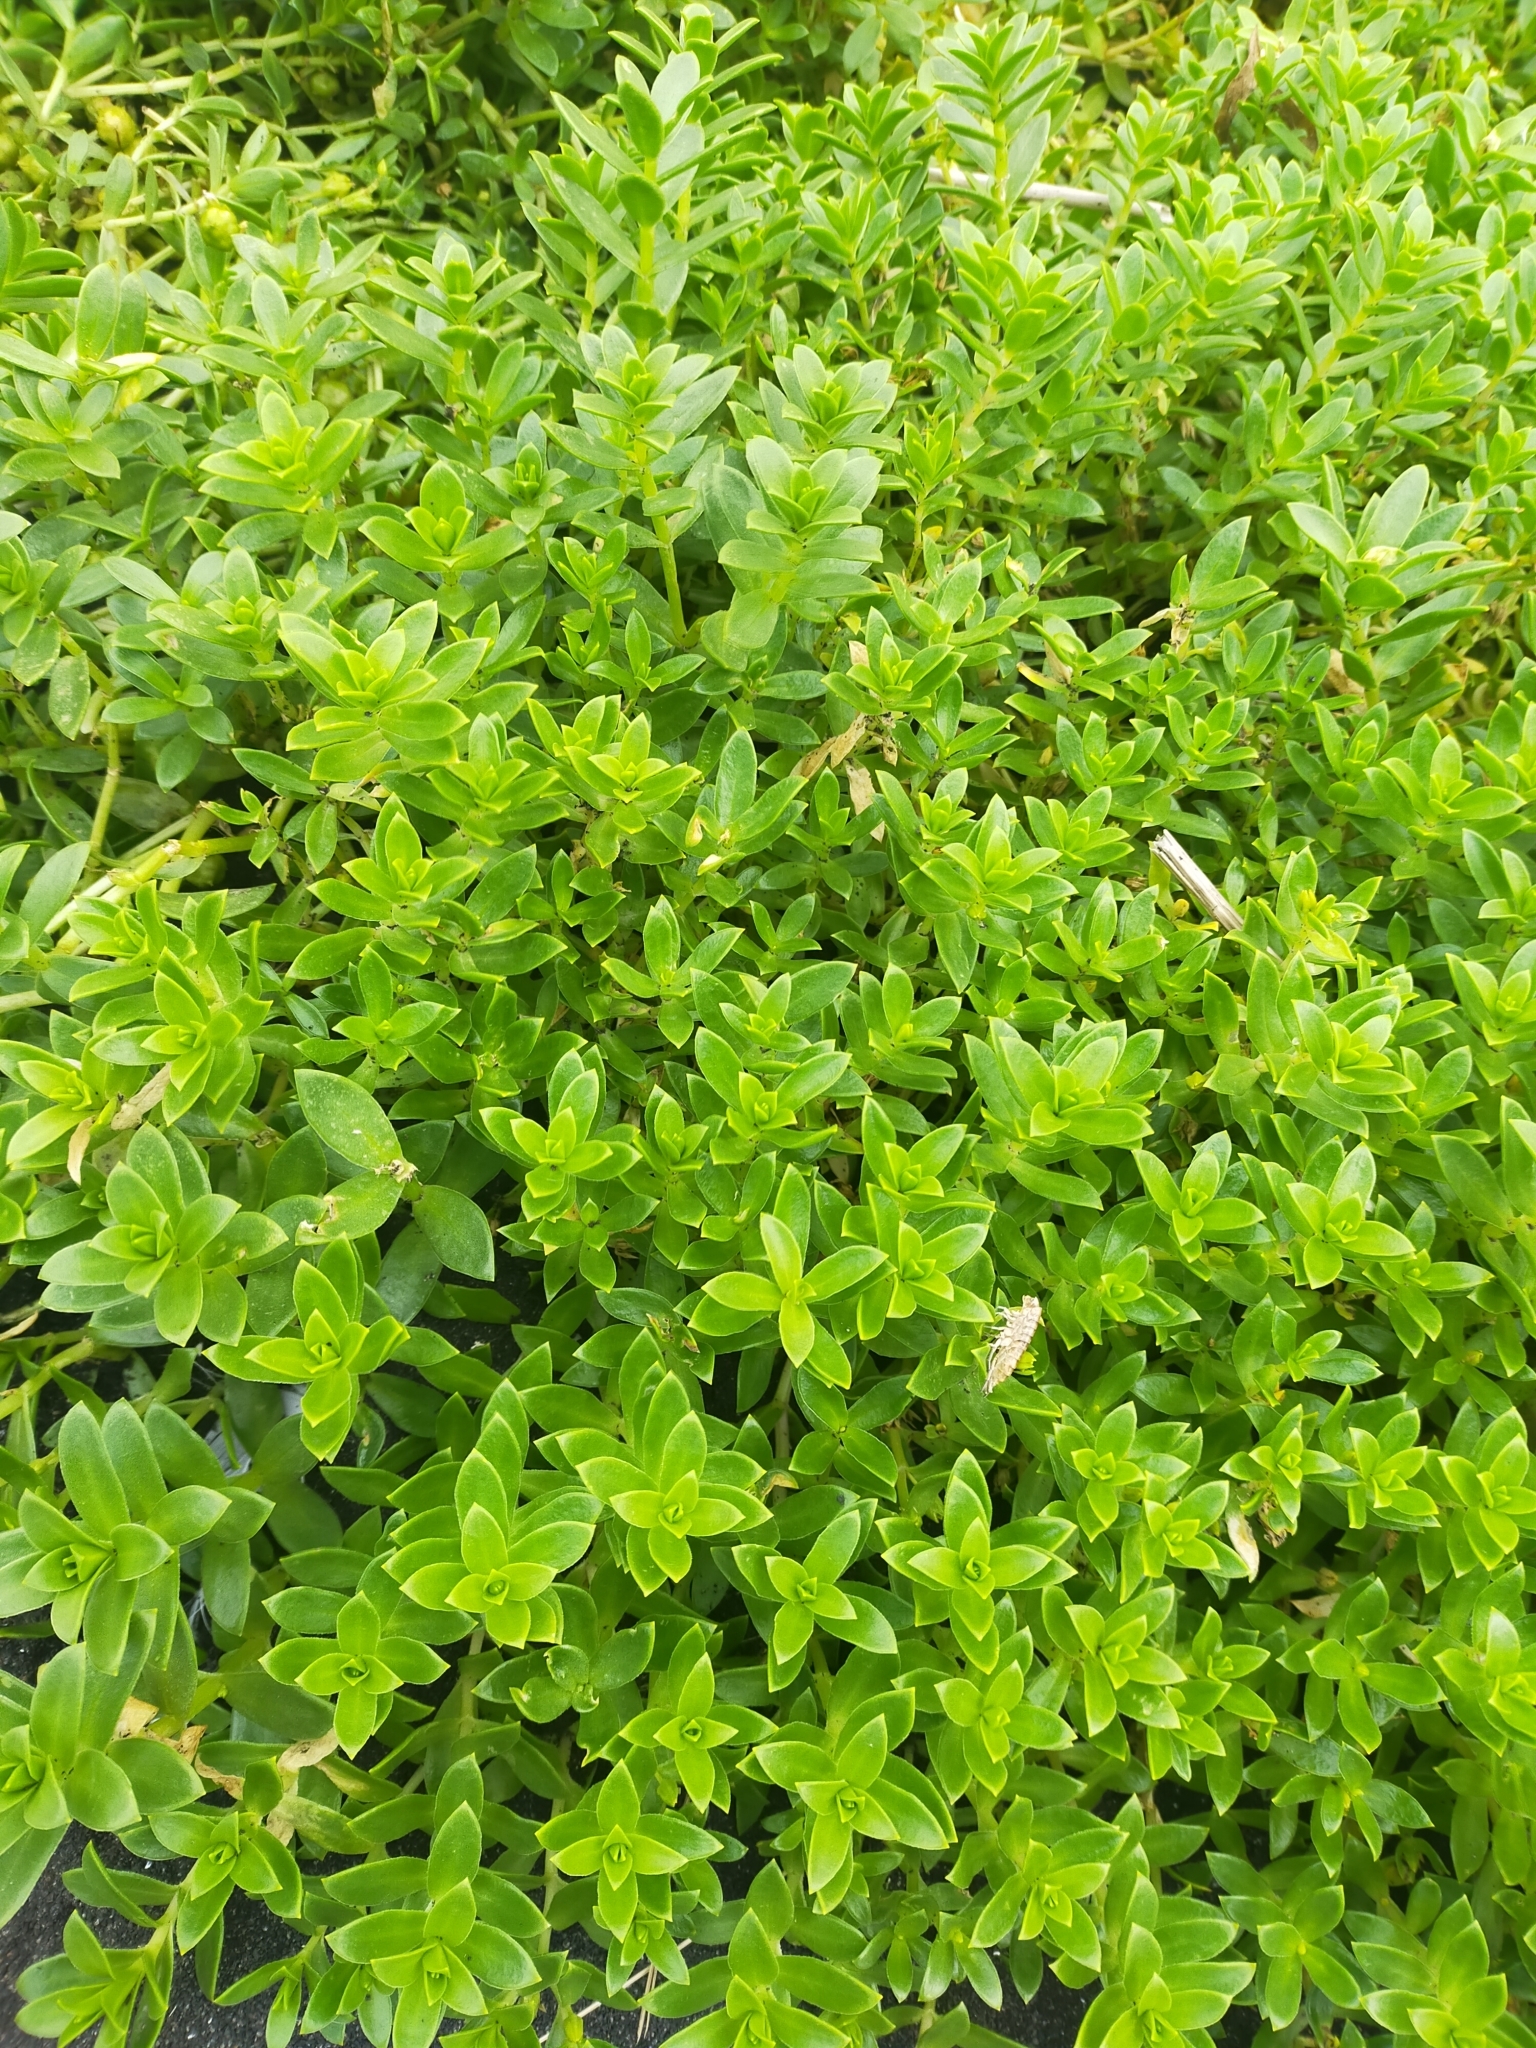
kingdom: Plantae
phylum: Tracheophyta
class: Magnoliopsida
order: Caryophyllales
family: Caryophyllaceae
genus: Honckenya
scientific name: Honckenya peploides
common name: Sea sandwort
